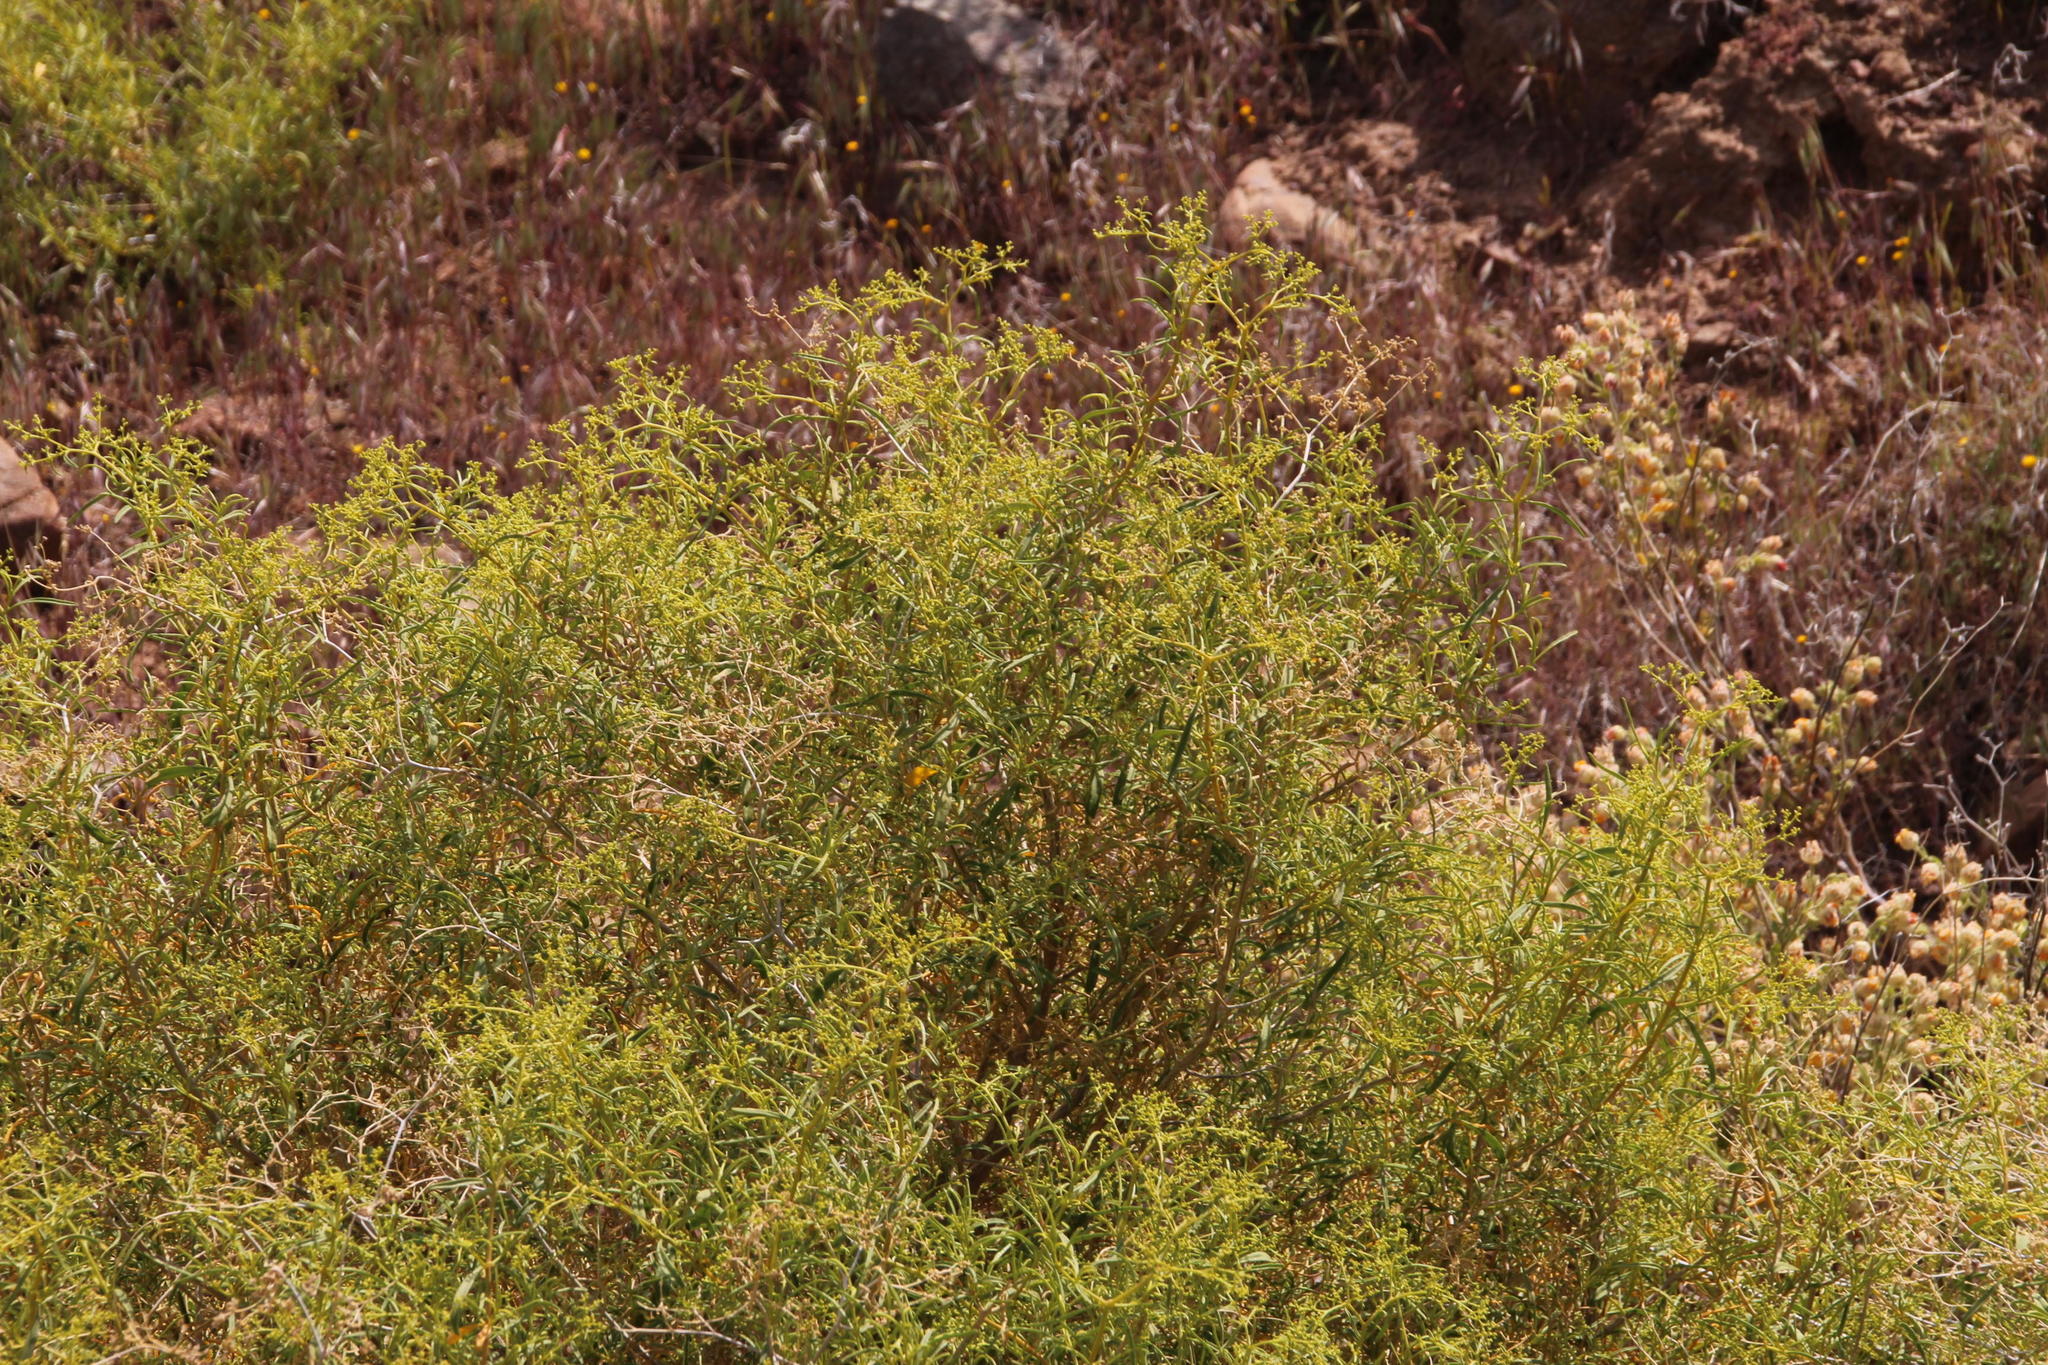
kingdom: Plantae
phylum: Tracheophyta
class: Magnoliopsida
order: Caryophyllales
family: Aizoaceae
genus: Aizoon
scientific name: Aizoon africanum
